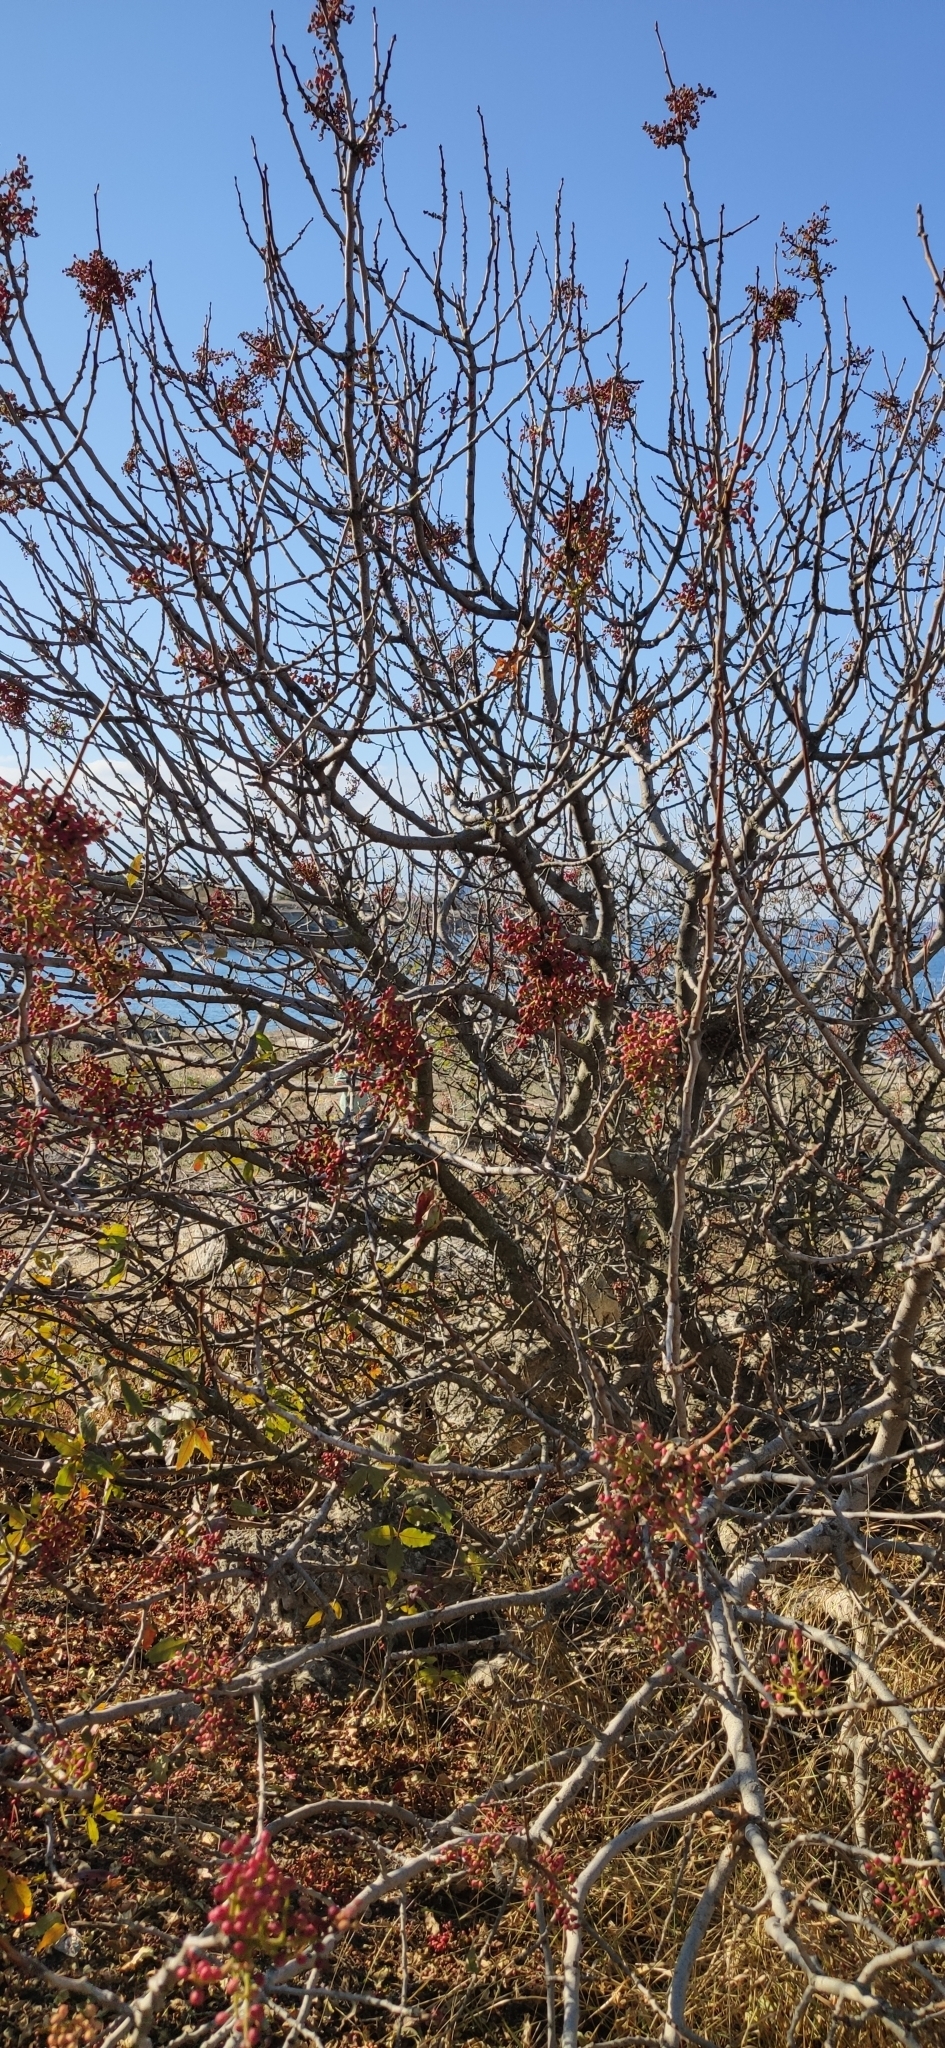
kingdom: Plantae
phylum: Tracheophyta
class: Magnoliopsida
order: Sapindales
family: Anacardiaceae
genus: Pistacia
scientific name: Pistacia atlantica
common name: Mt. atlas mastic tree
